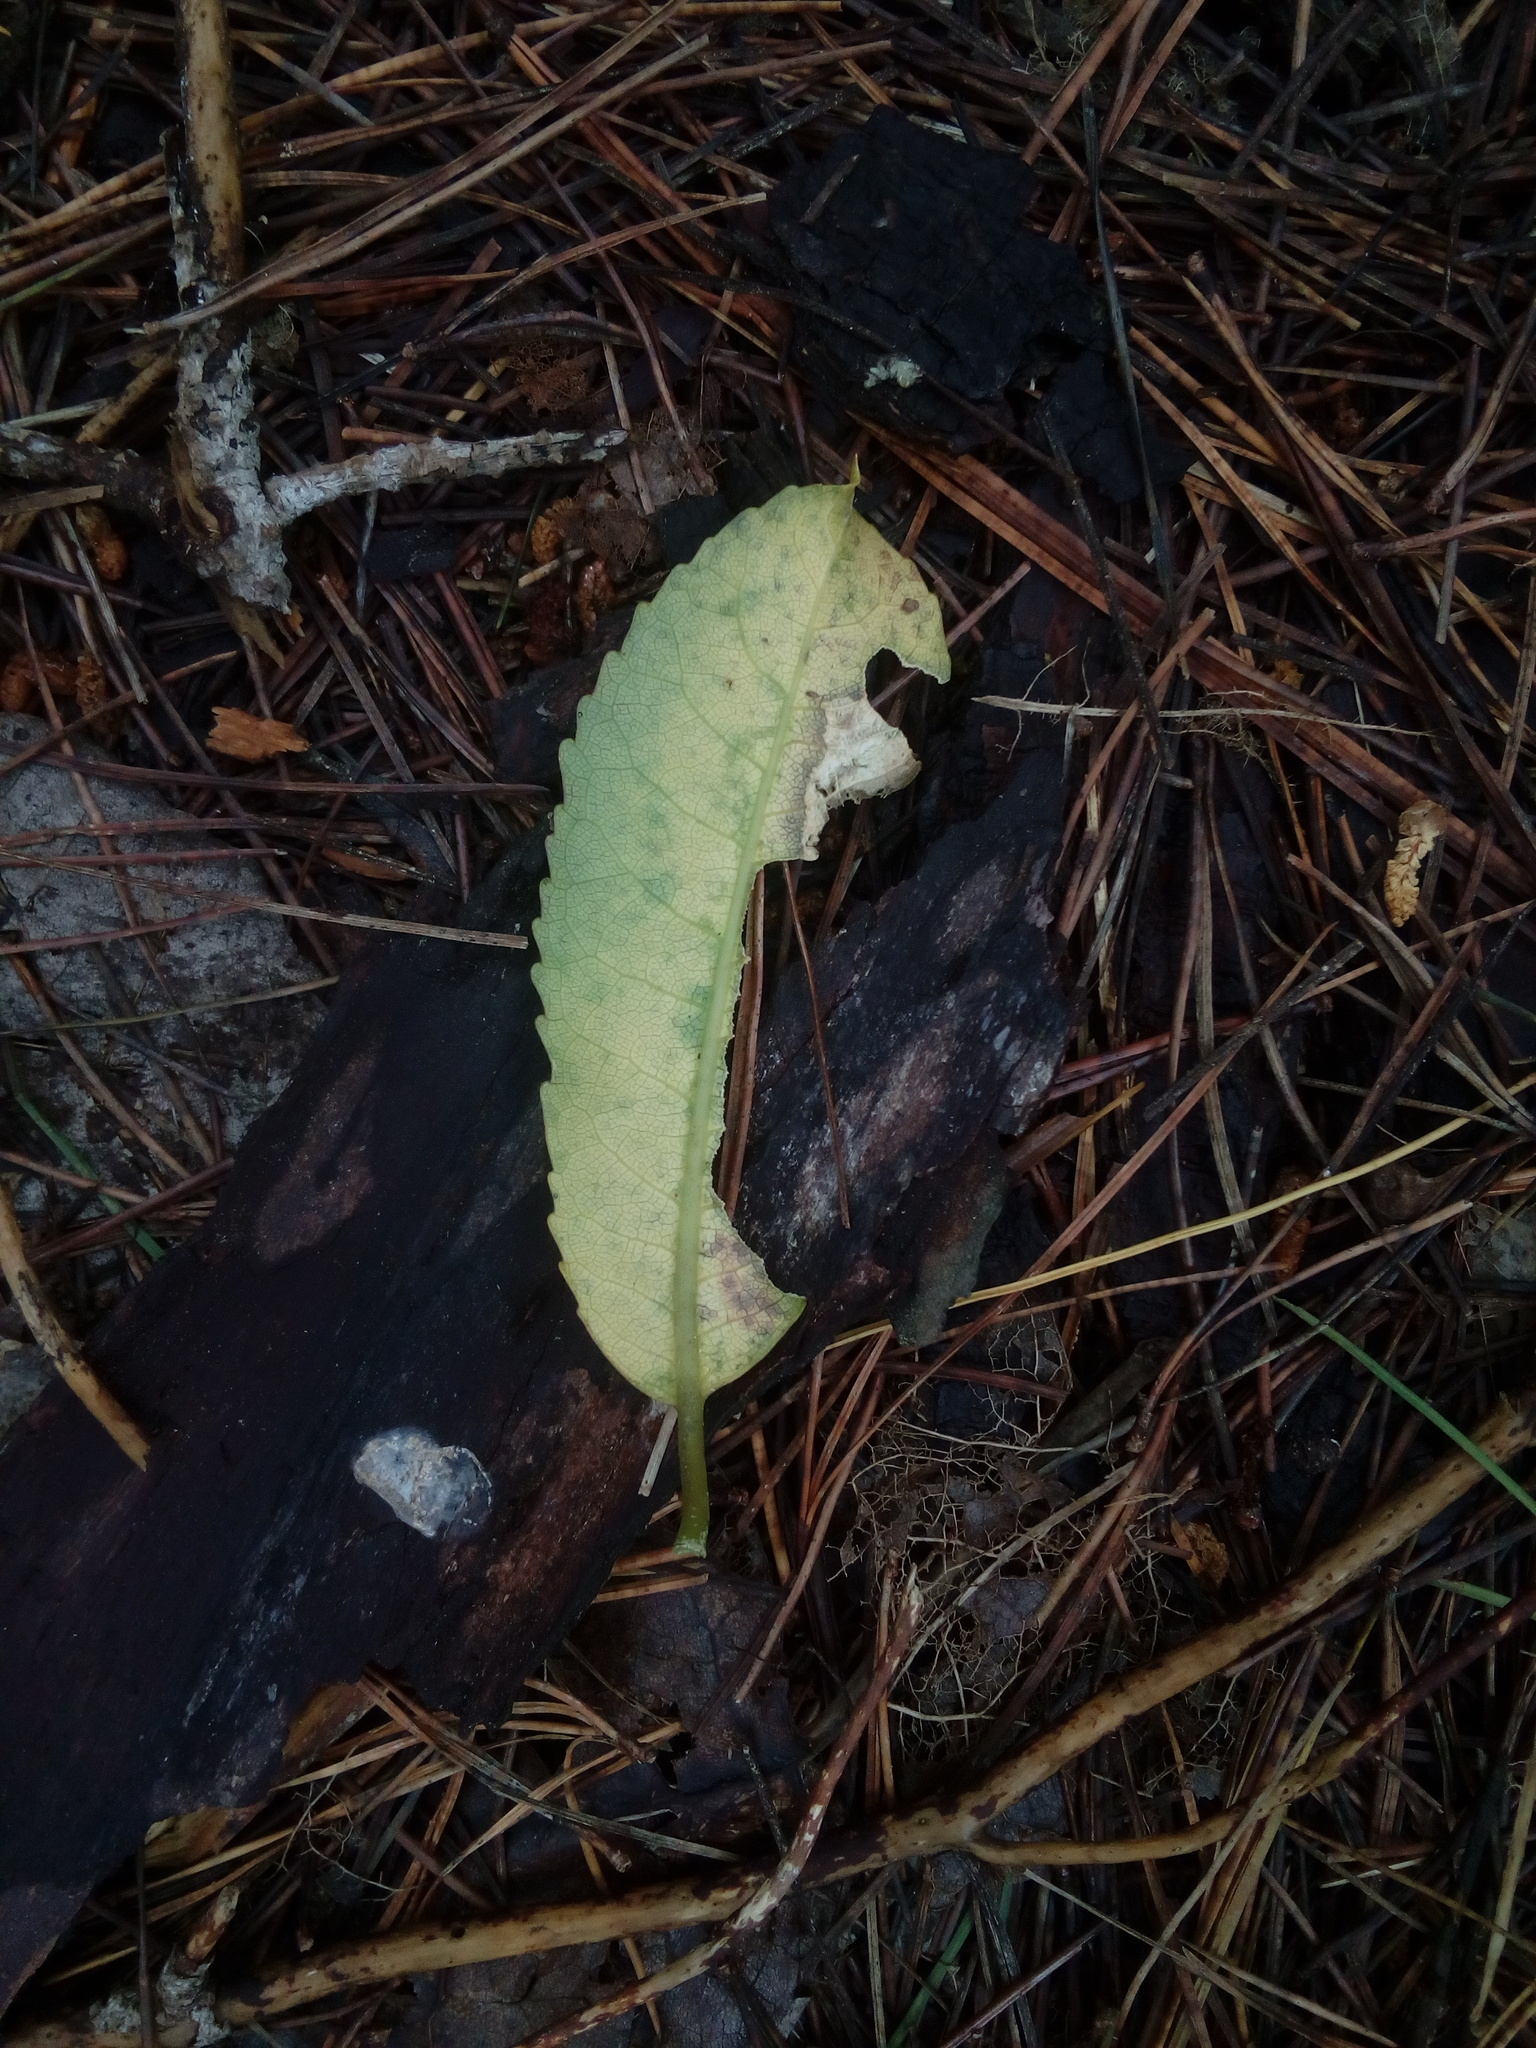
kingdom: Plantae
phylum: Tracheophyta
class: Magnoliopsida
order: Malpighiales
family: Violaceae
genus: Melicytus
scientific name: Melicytus ramiflorus
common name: Mahoe
